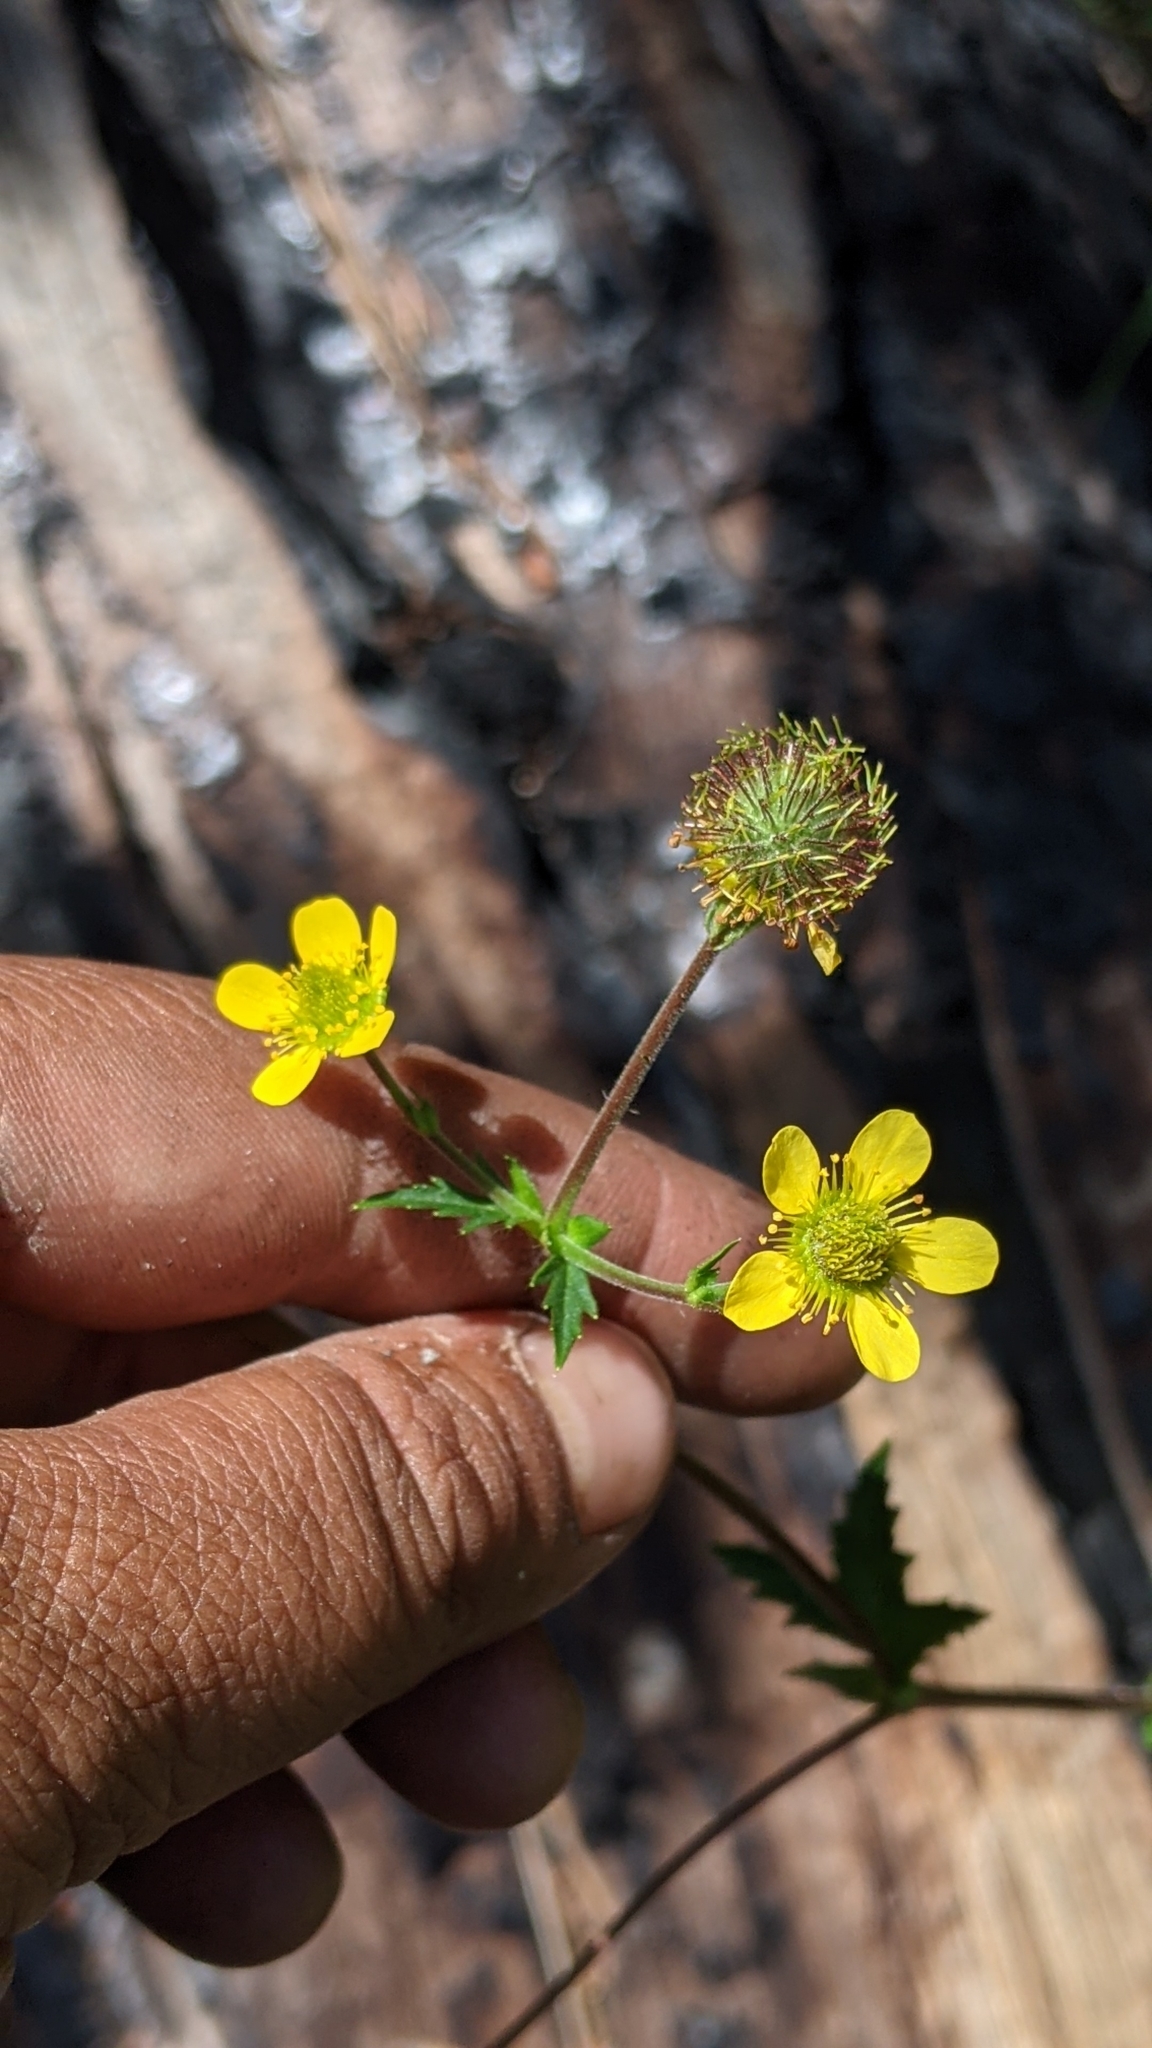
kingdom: Plantae
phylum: Tracheophyta
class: Magnoliopsida
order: Rosales
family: Rosaceae
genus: Geum
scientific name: Geum macrophyllum
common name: Large-leaved avens
